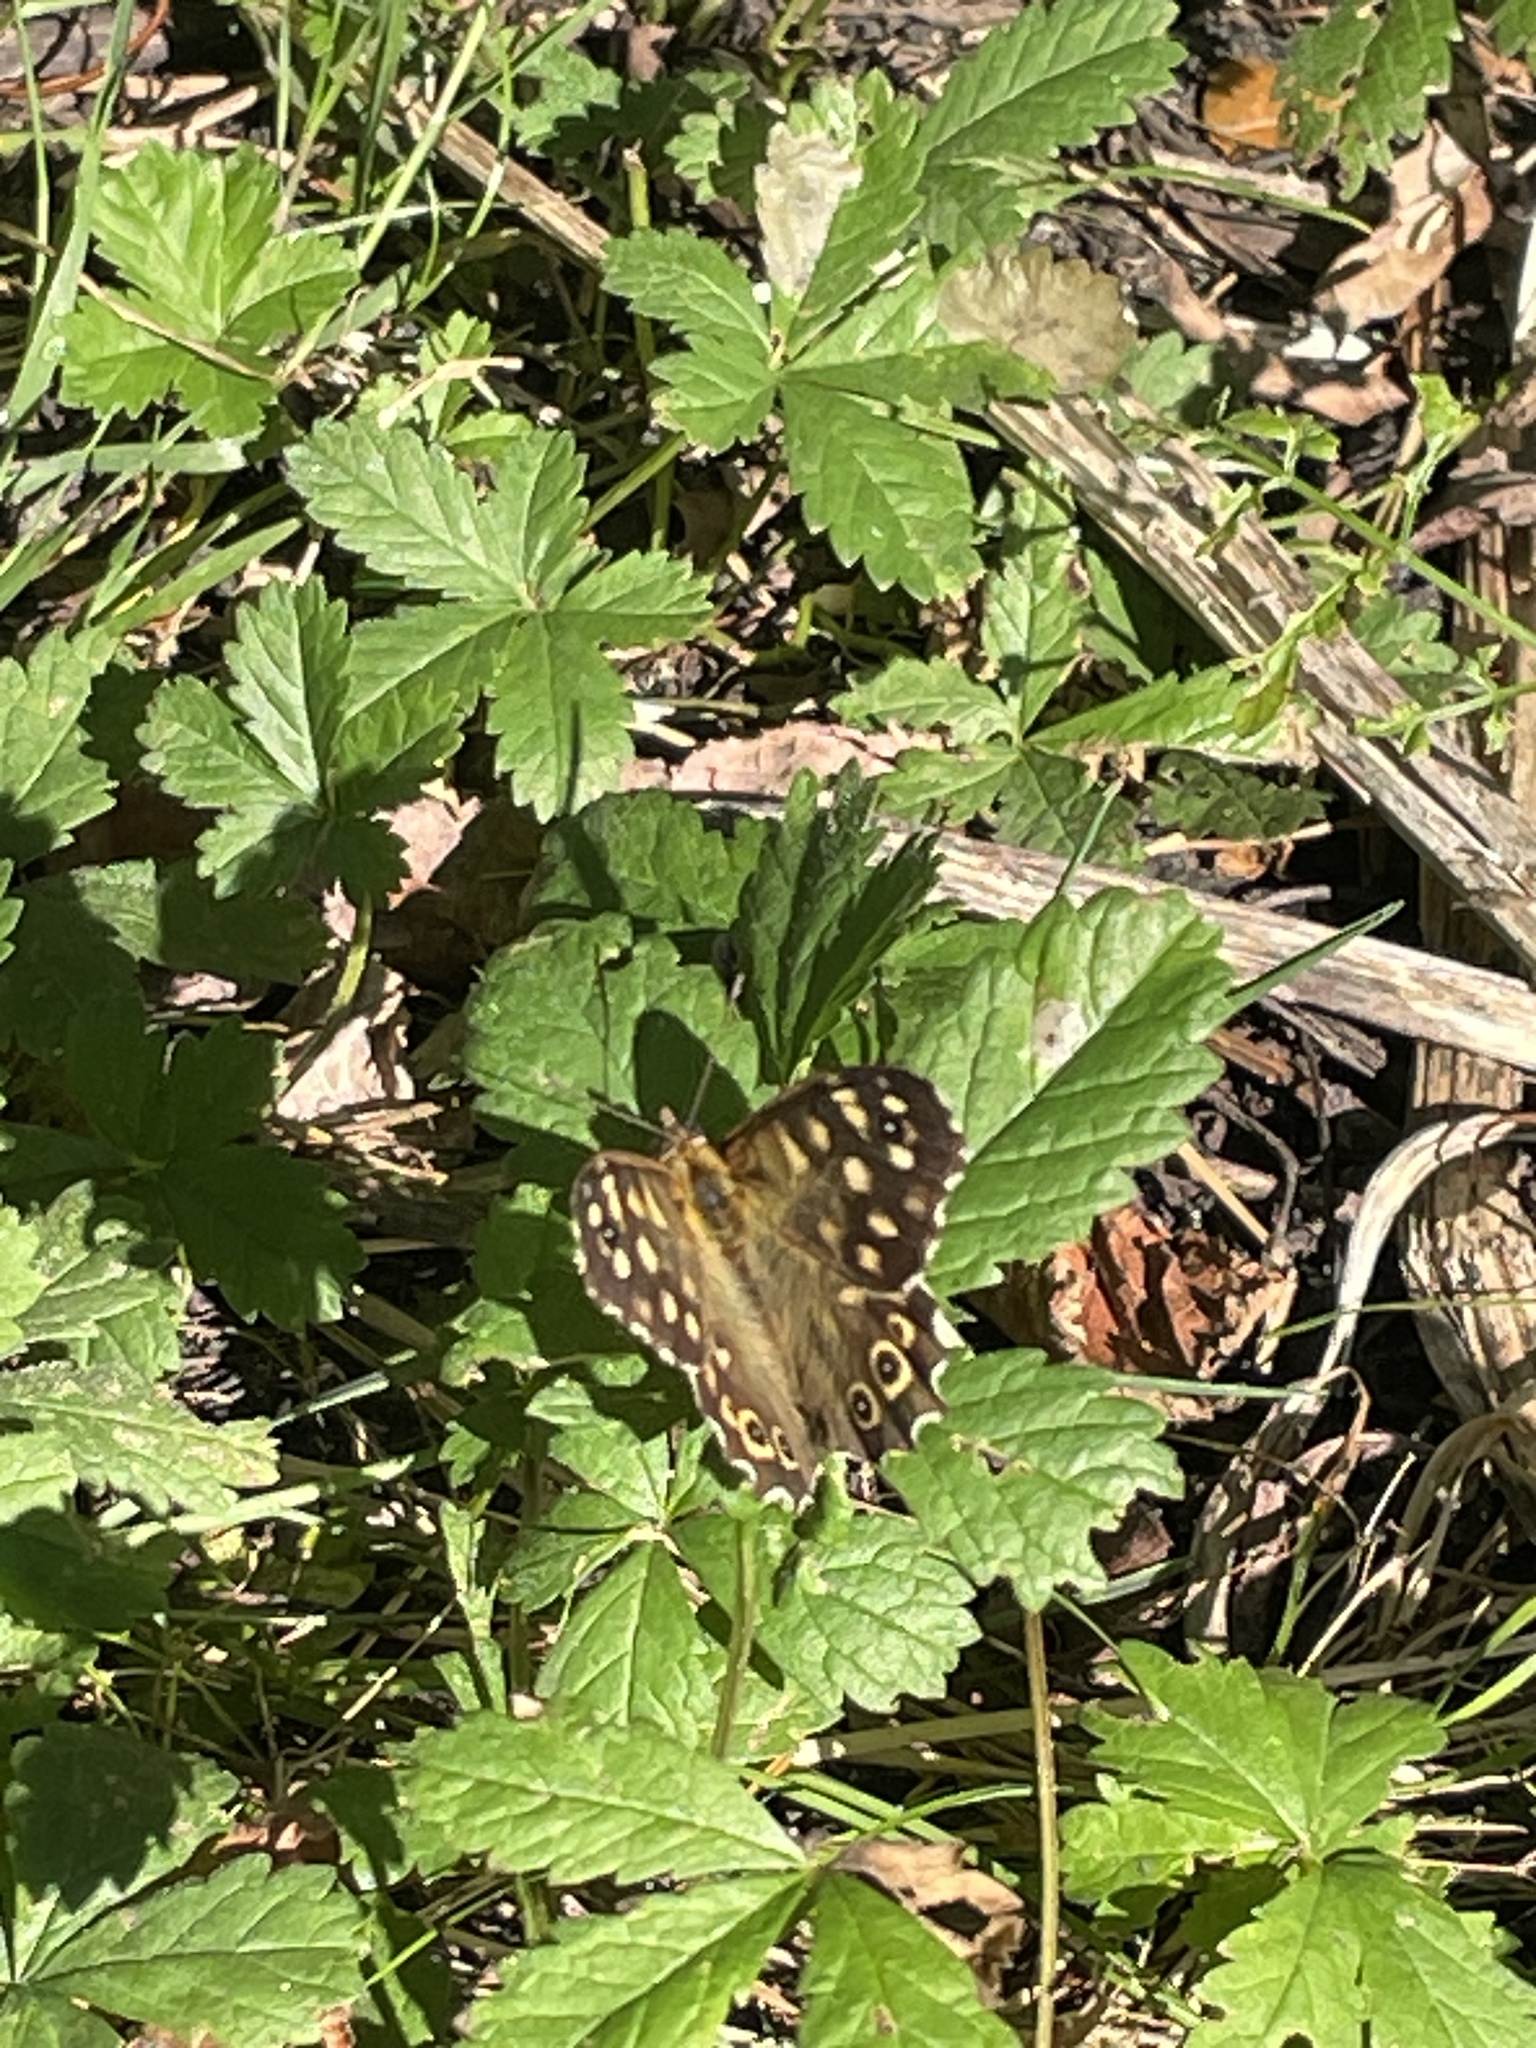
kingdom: Animalia
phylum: Arthropoda
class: Insecta
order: Lepidoptera
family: Nymphalidae
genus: Pararge
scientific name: Pararge aegeria
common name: Speckled wood
